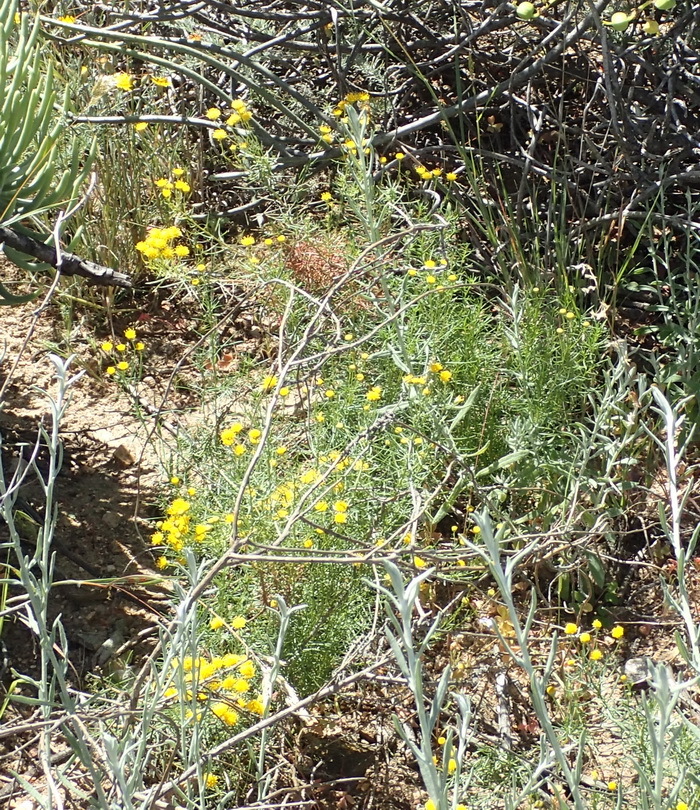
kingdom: Plantae
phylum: Tracheophyta
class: Magnoliopsida
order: Asterales
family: Asteraceae
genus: Chrysocoma
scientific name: Chrysocoma ciliata
